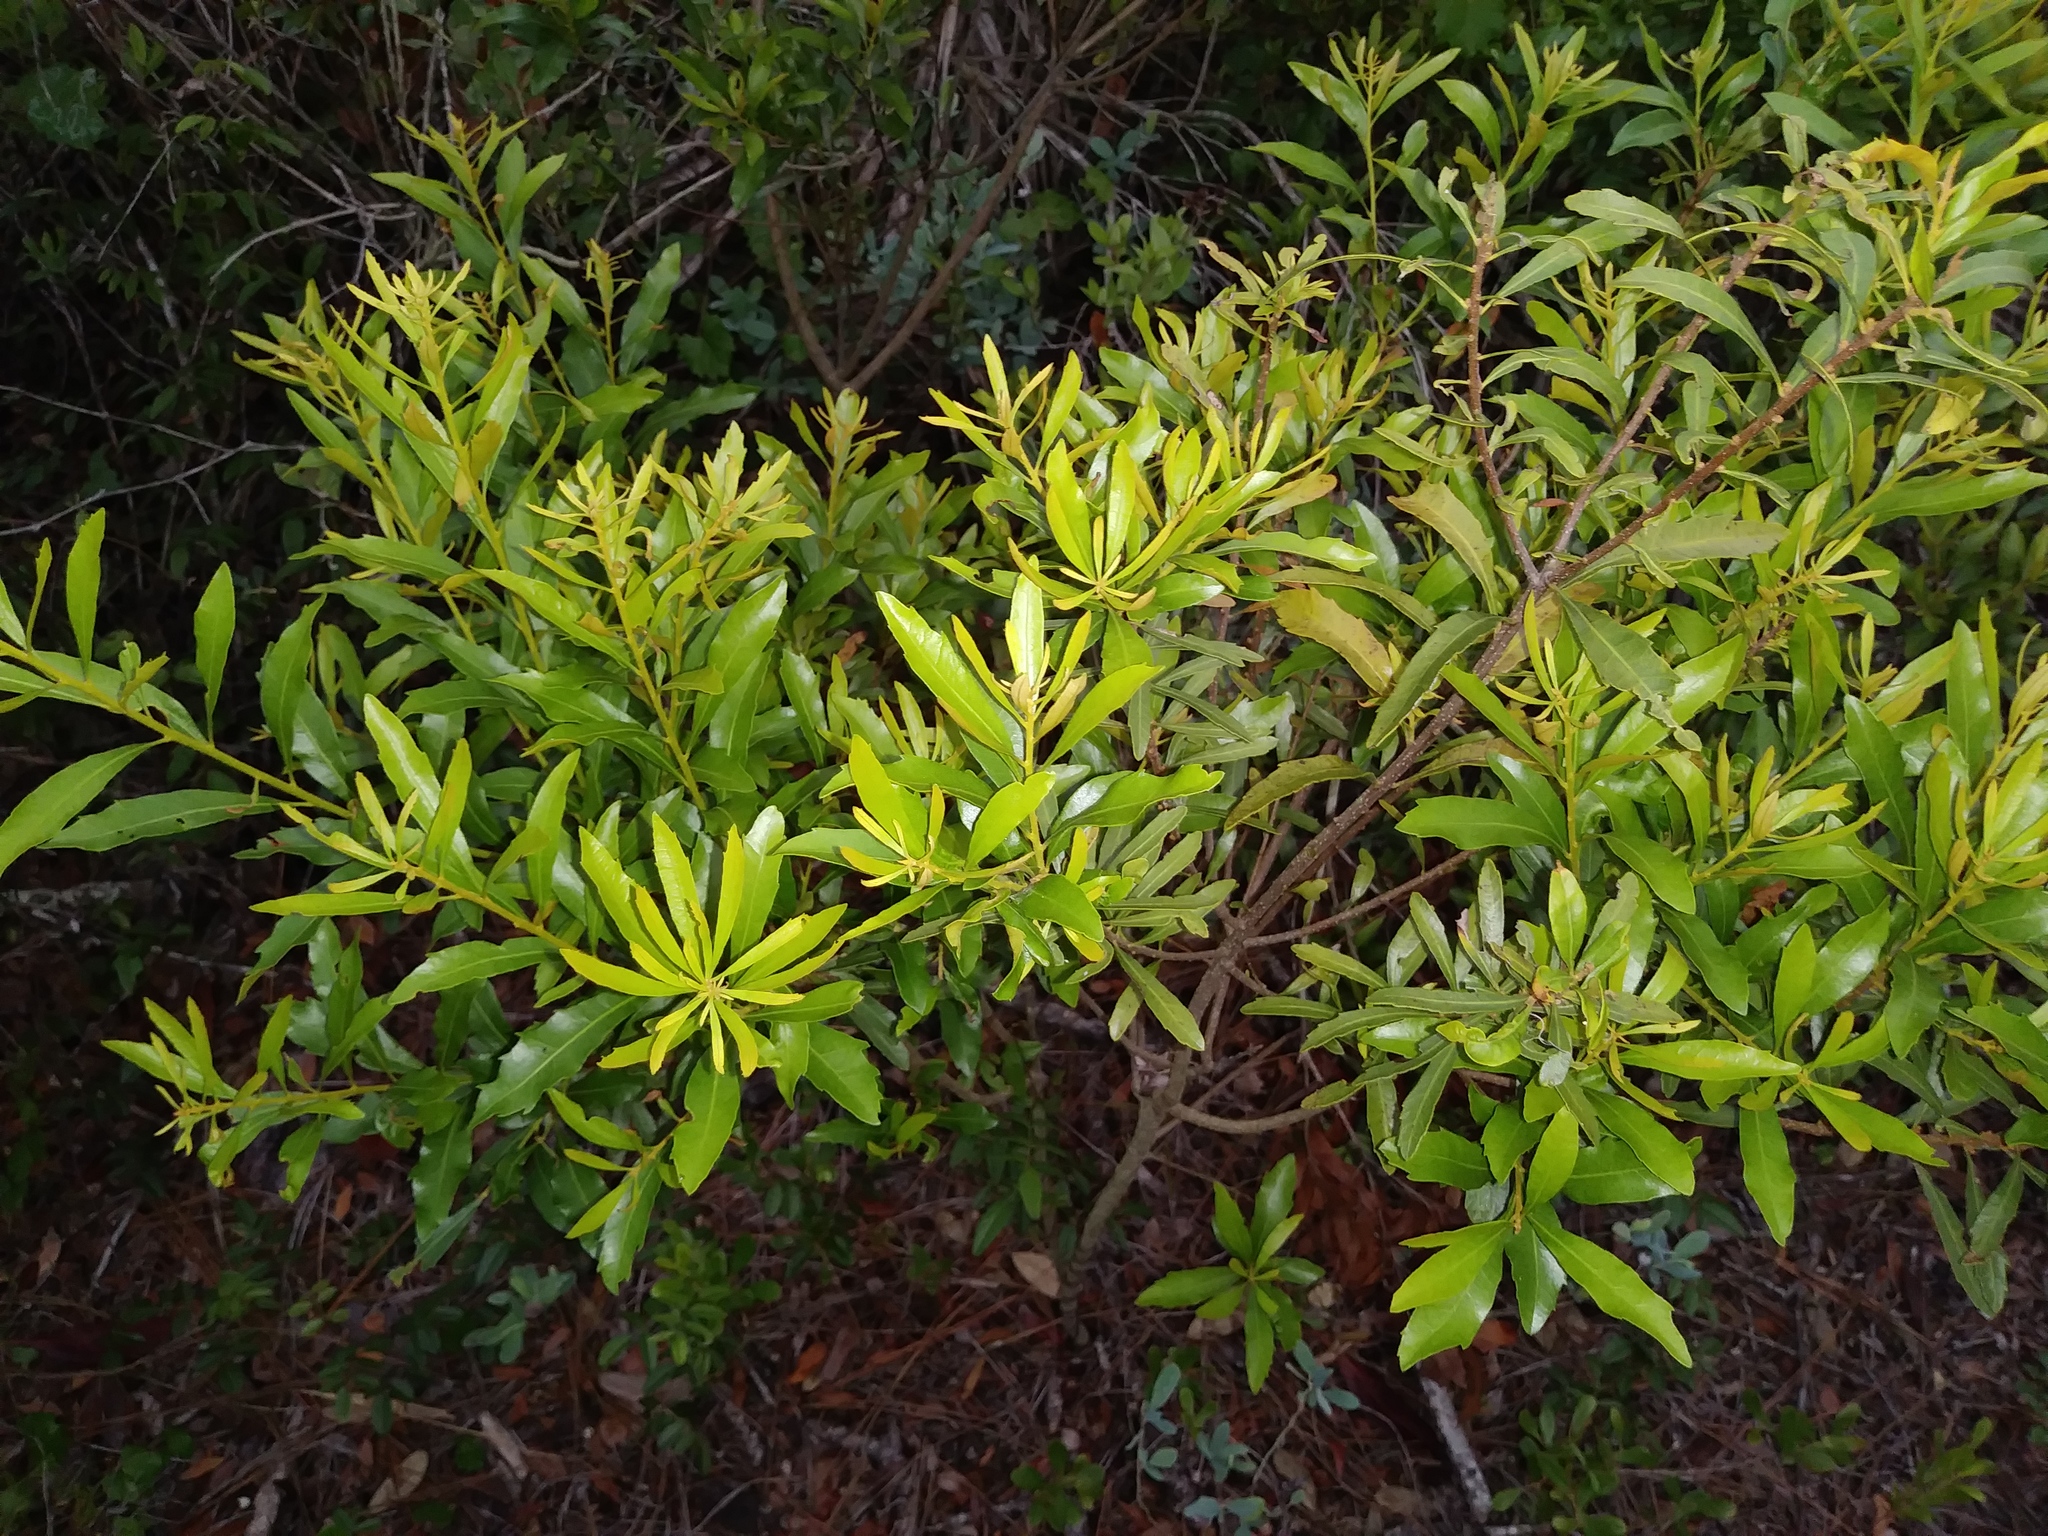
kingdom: Plantae
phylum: Tracheophyta
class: Magnoliopsida
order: Fagales
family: Myricaceae
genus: Morella
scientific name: Morella cerifera
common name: Wax myrtle
